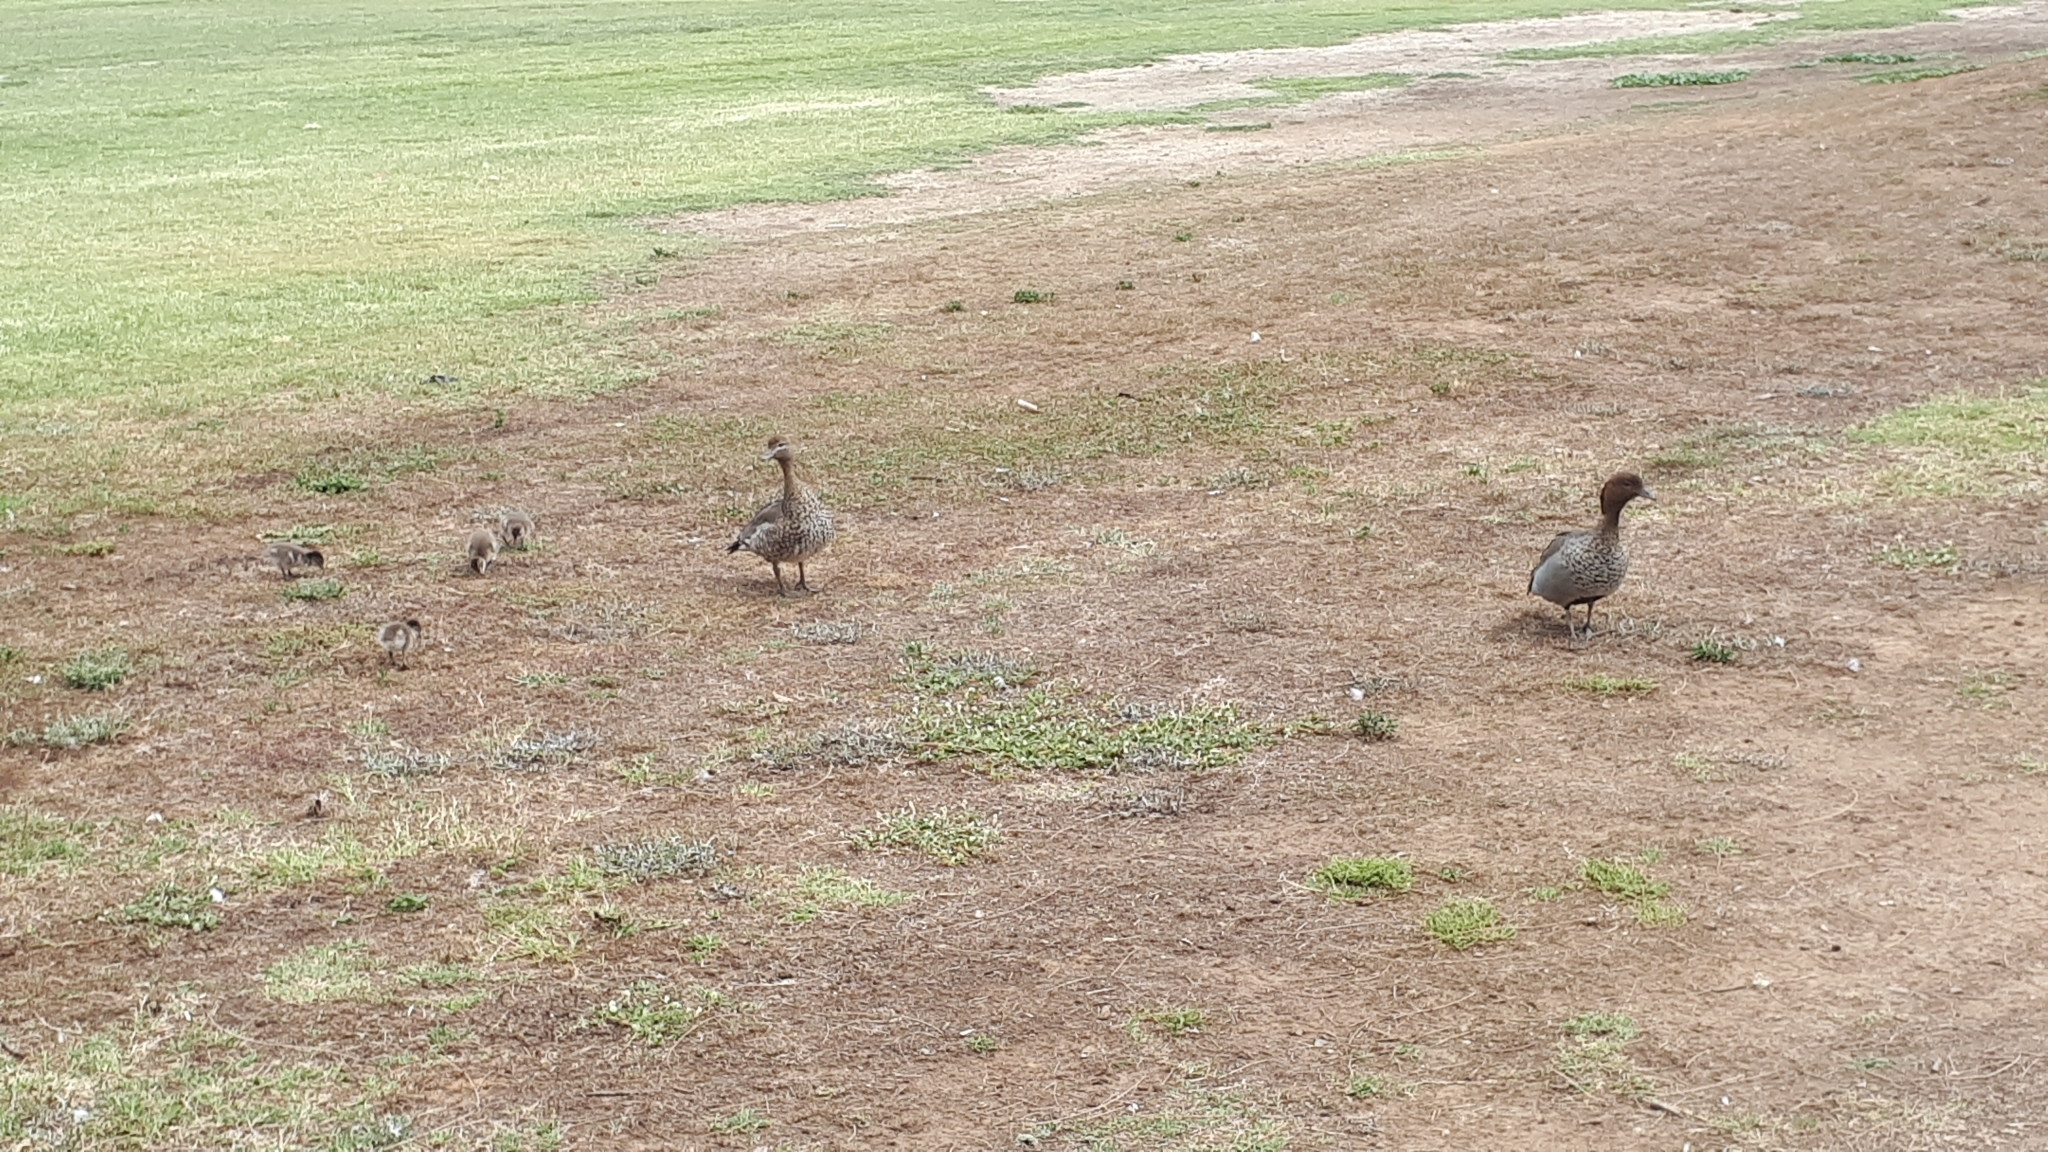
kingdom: Animalia
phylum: Chordata
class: Aves
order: Anseriformes
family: Anatidae
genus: Chenonetta
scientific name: Chenonetta jubata
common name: Maned duck
